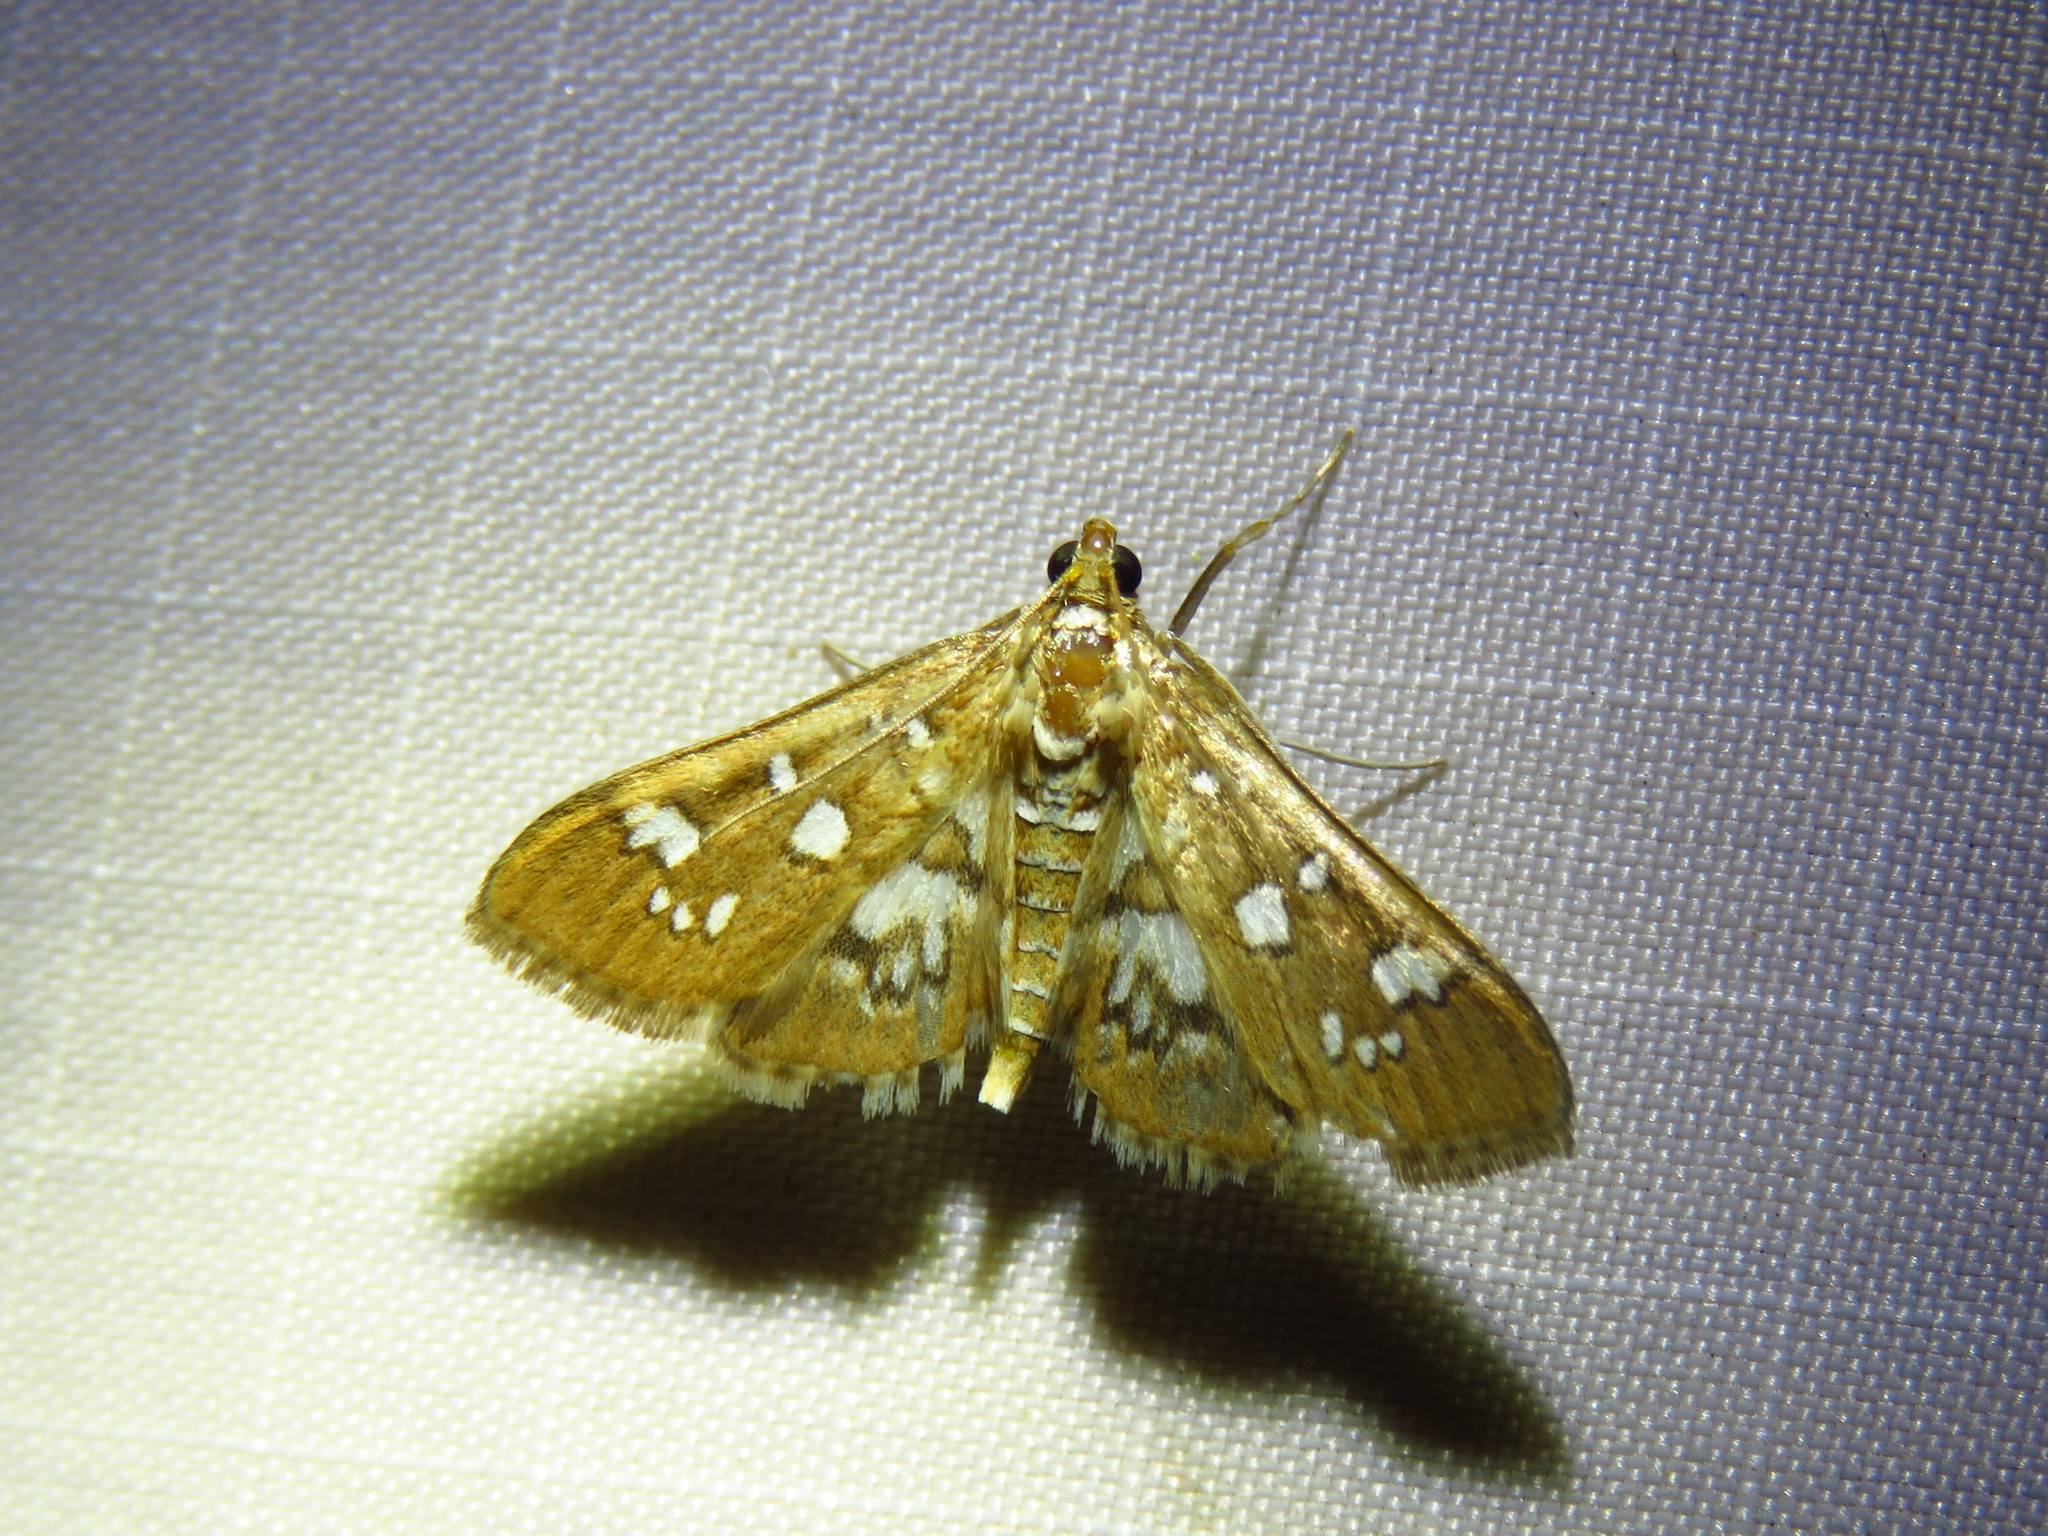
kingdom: Animalia
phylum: Arthropoda
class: Insecta
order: Lepidoptera
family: Crambidae
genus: Samea
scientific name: Samea baccatalis
